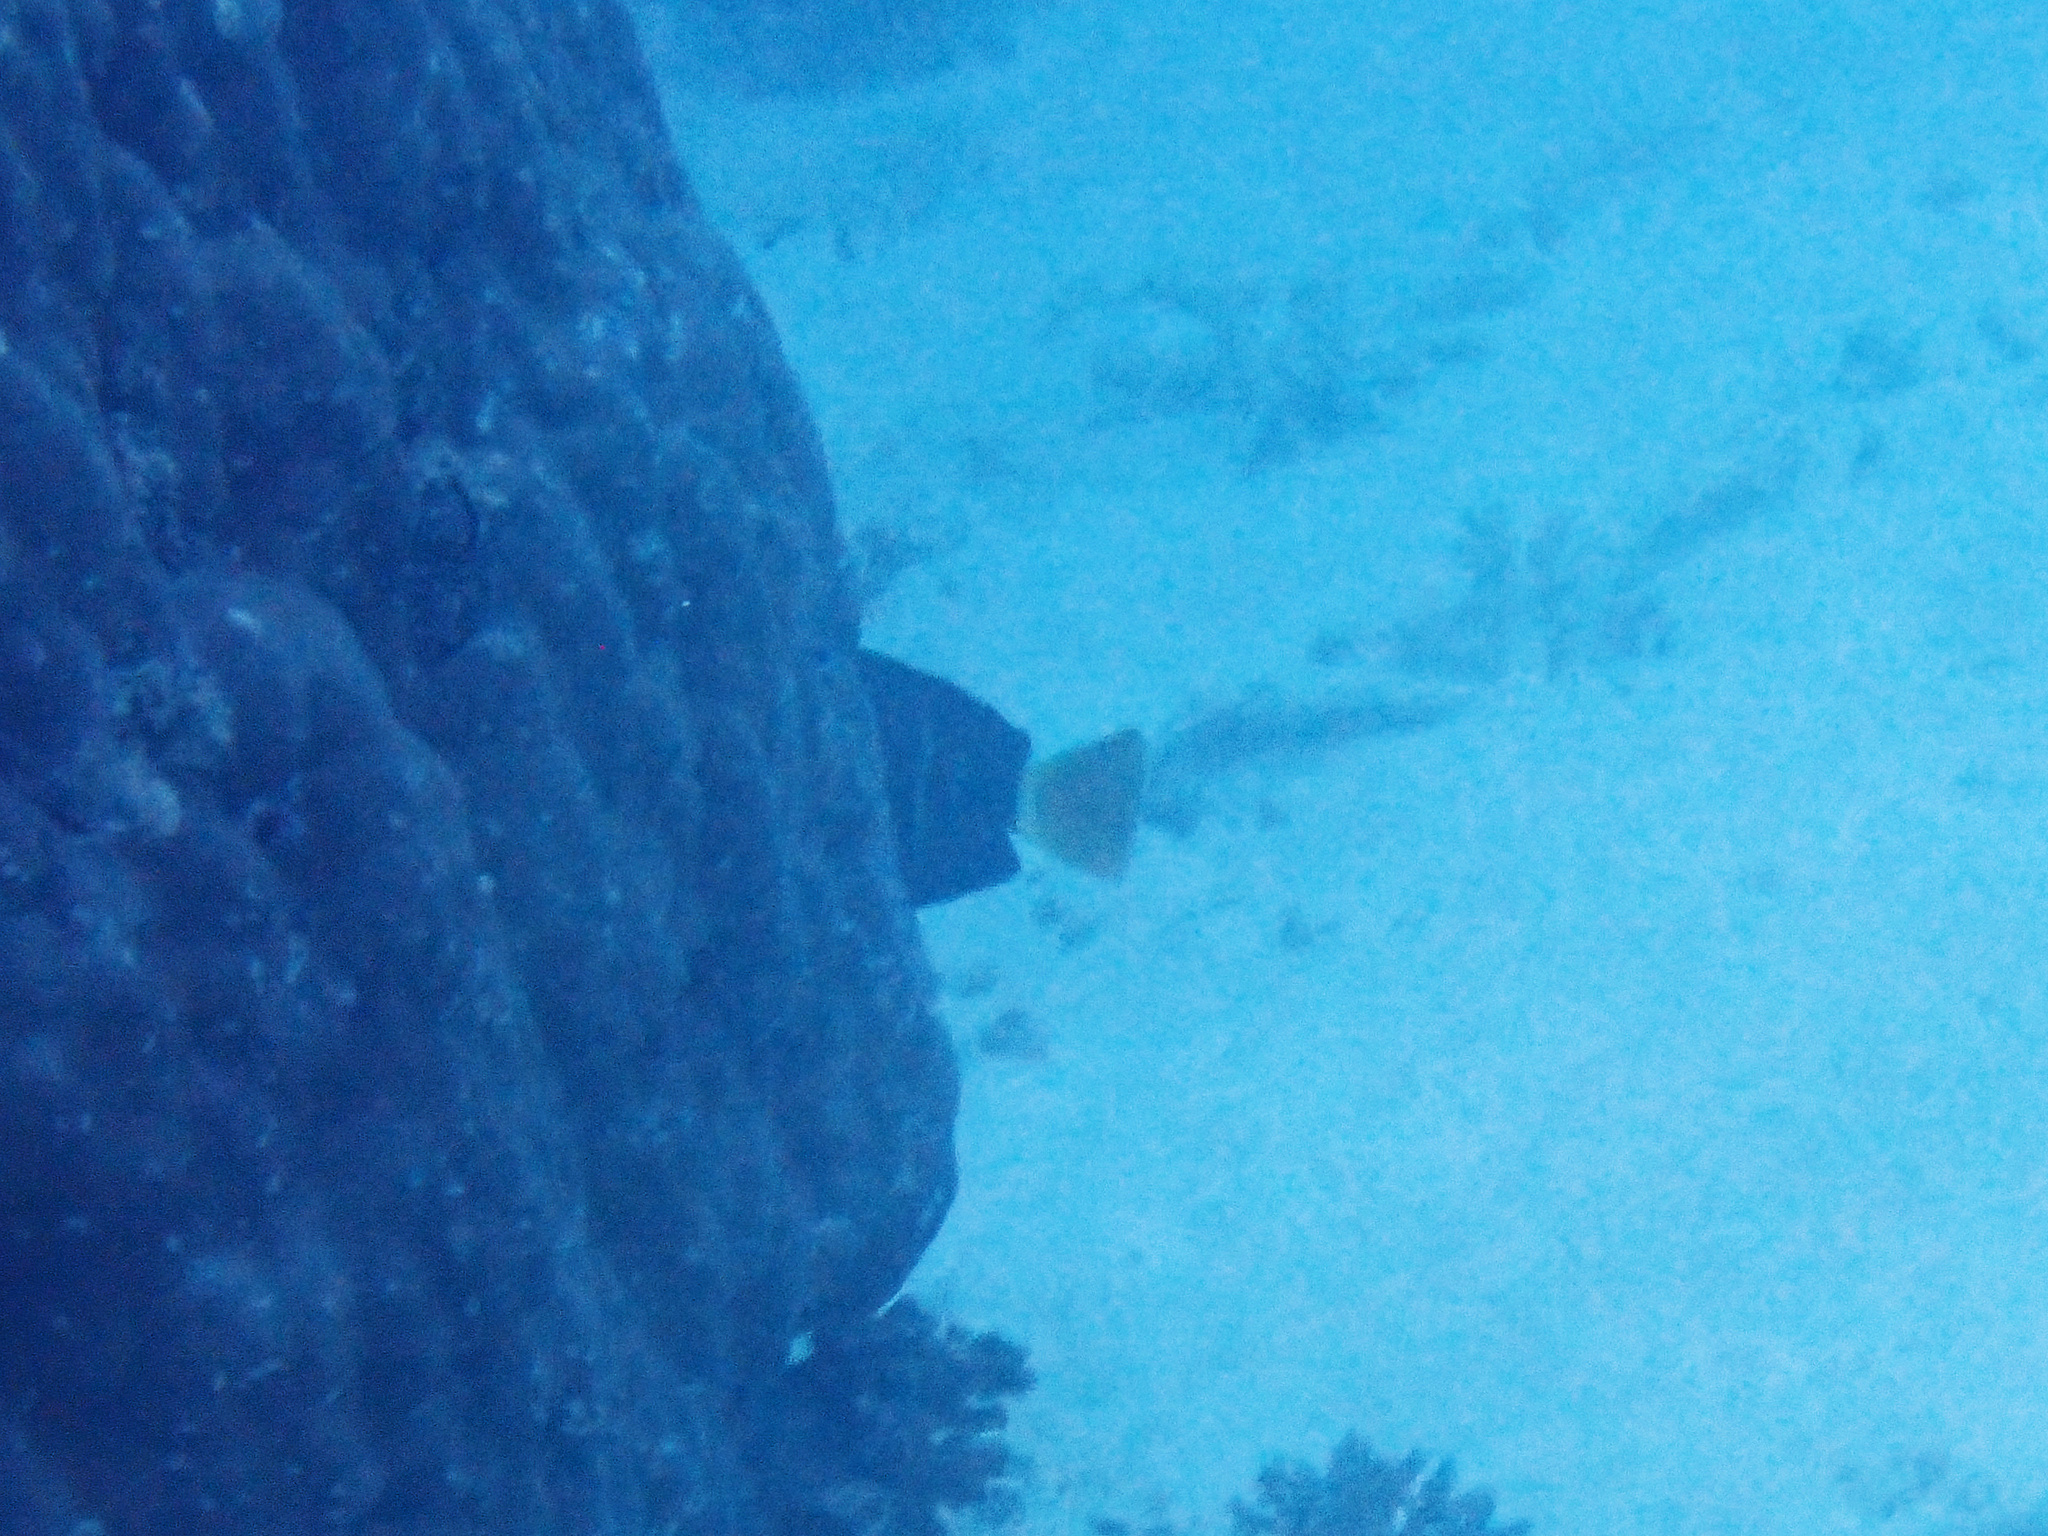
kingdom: Animalia
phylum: Chordata
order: Perciformes
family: Acanthuridae
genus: Zebrasoma
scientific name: Zebrasoma veliferum
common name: Sailfin surgeonfish
